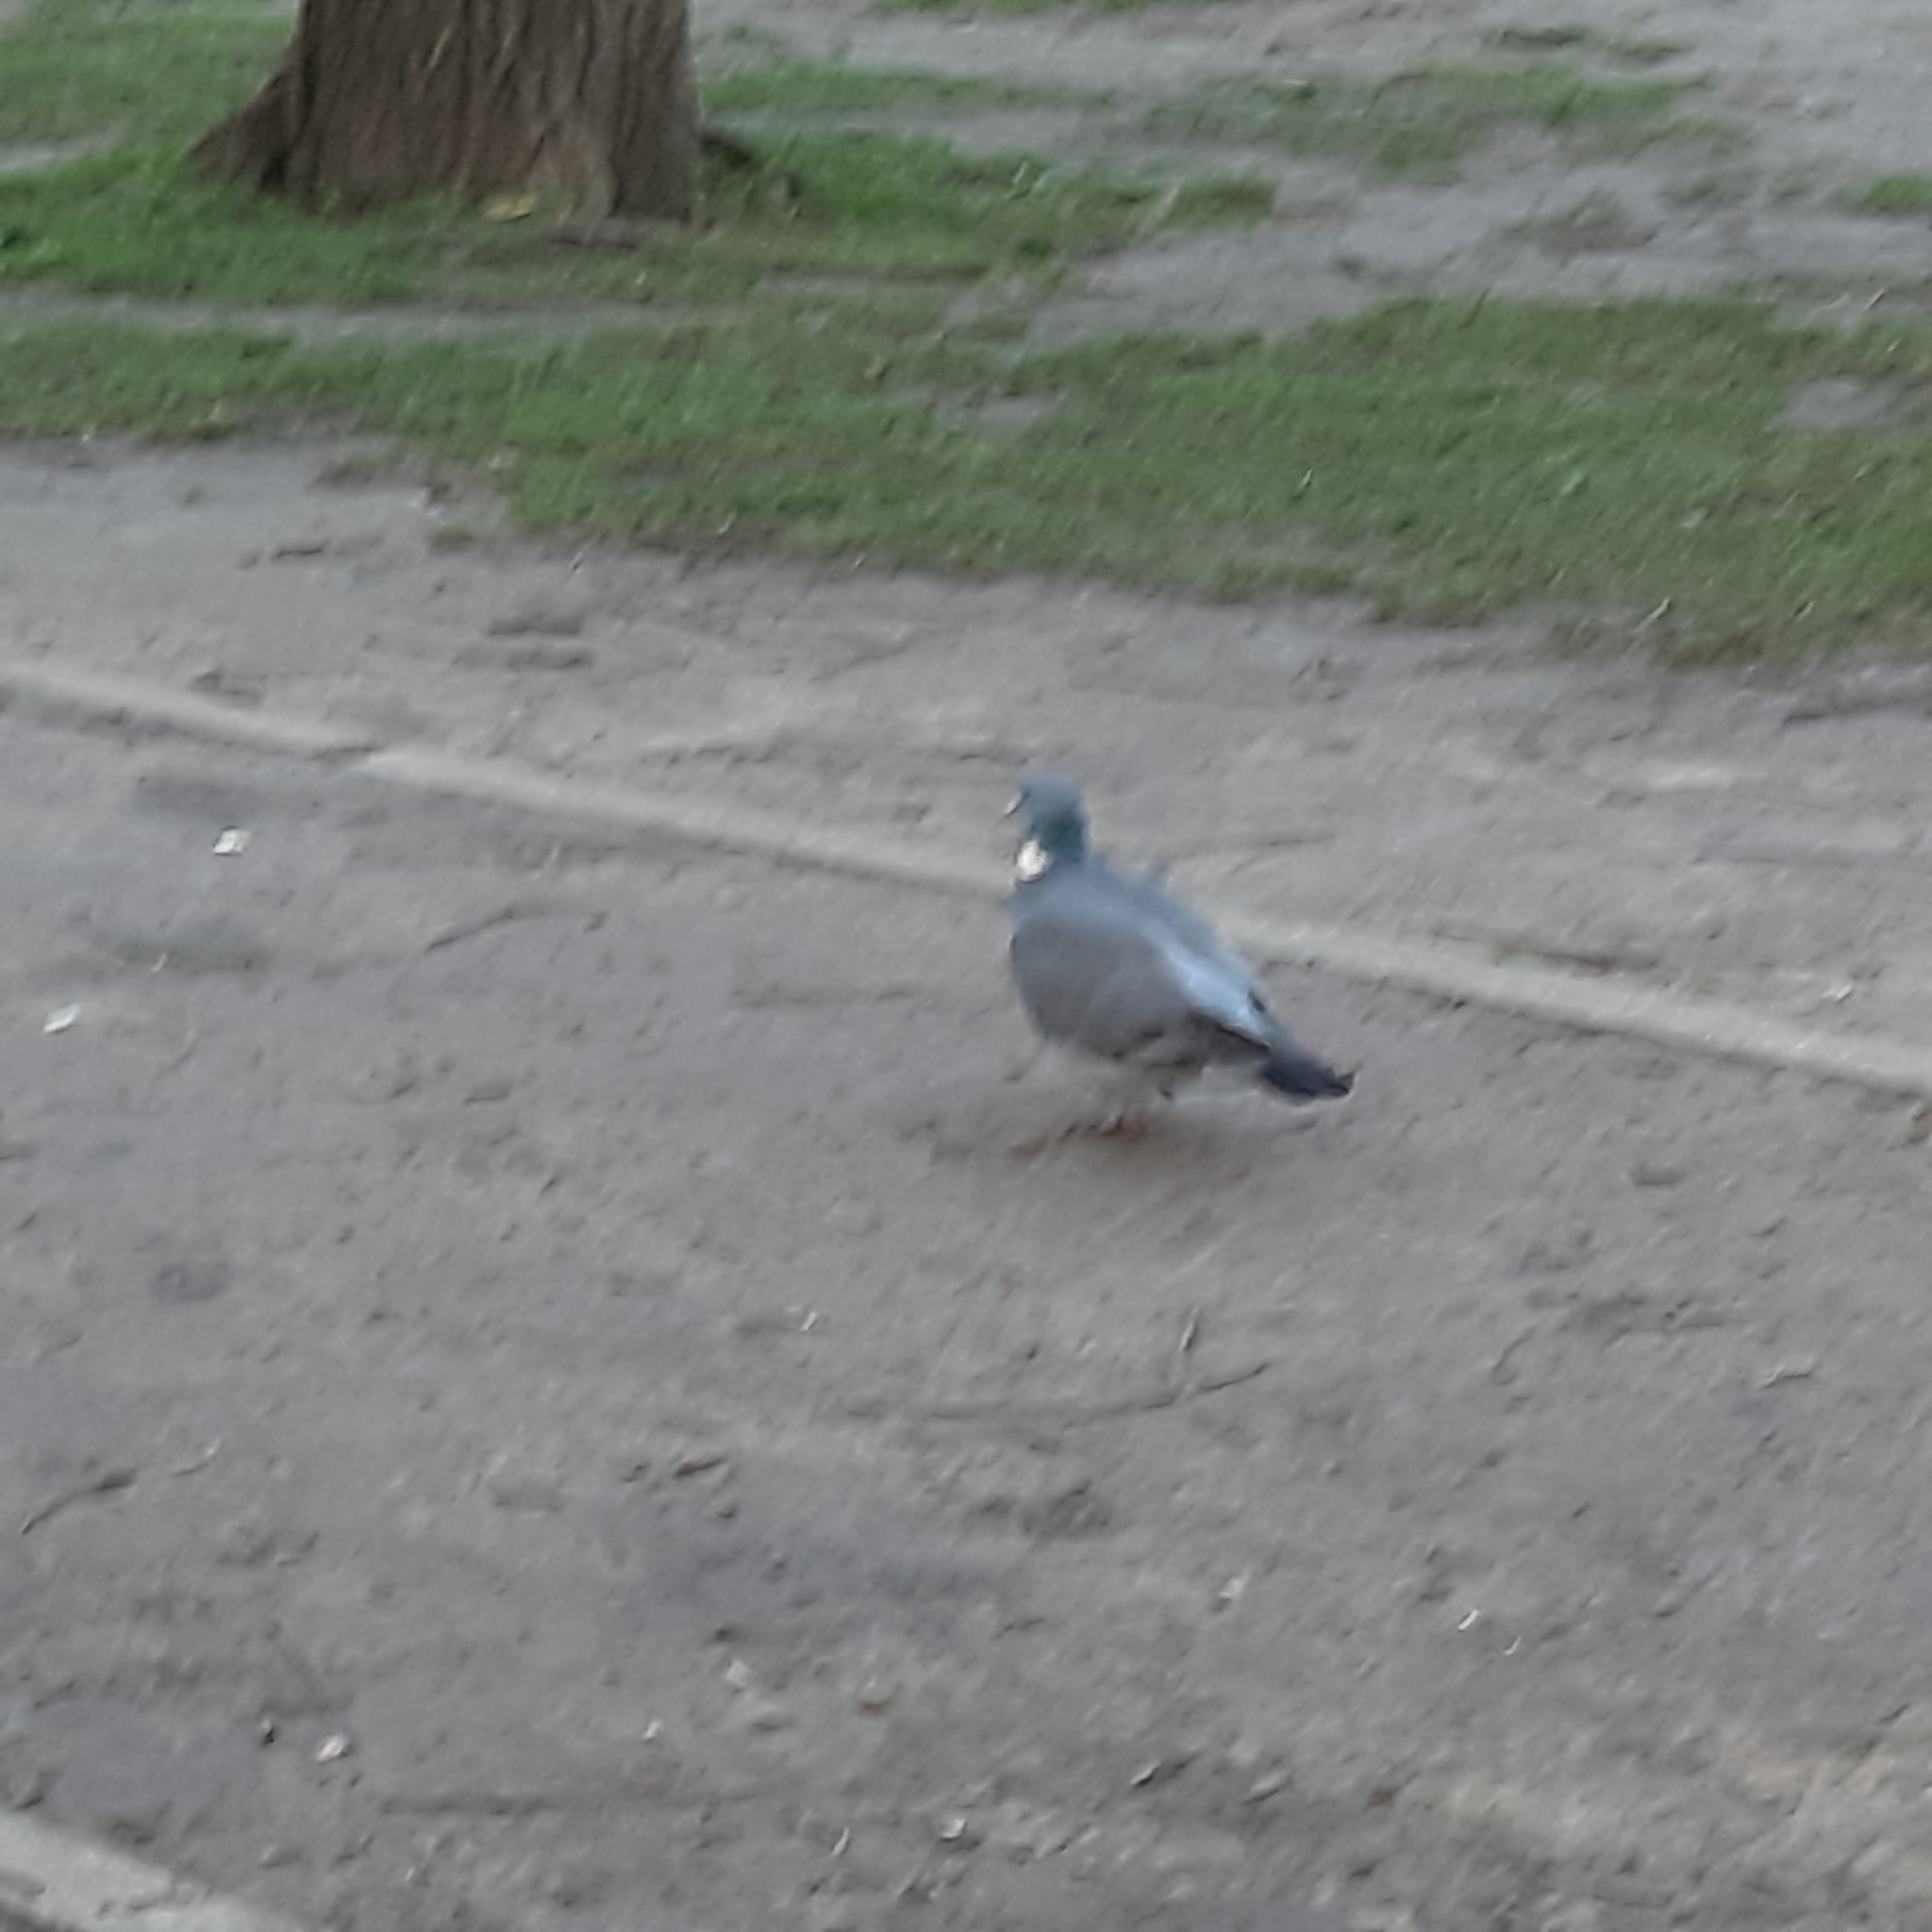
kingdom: Animalia
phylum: Chordata
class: Aves
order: Columbiformes
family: Columbidae
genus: Columba
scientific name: Columba palumbus
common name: Common wood pigeon
